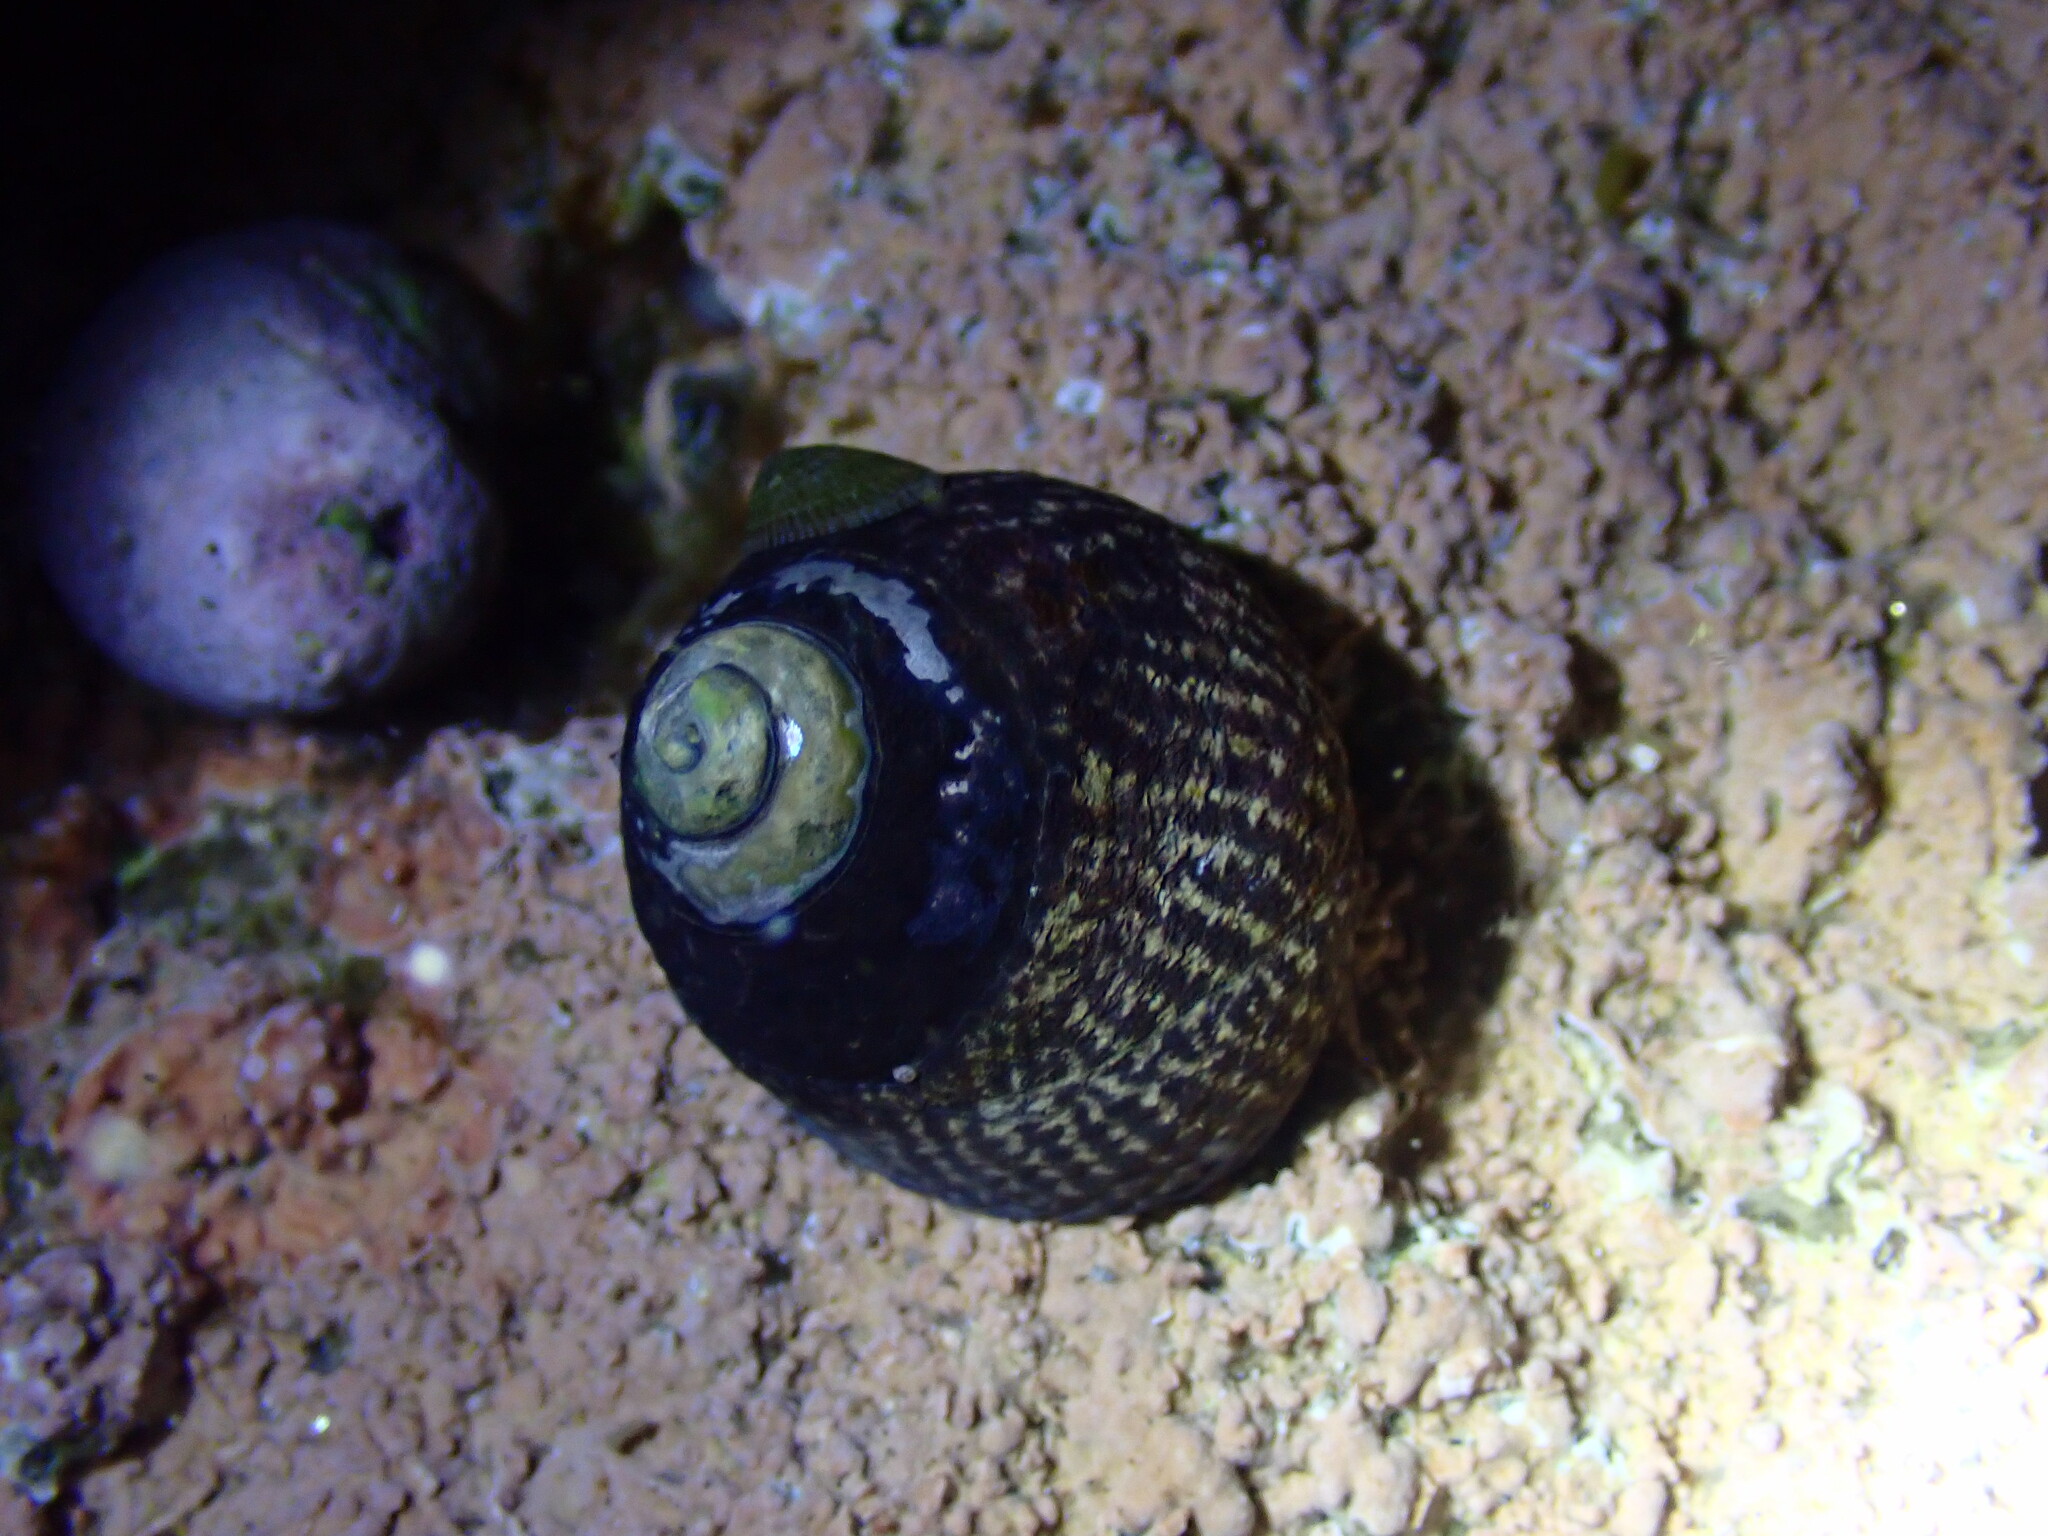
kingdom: Animalia
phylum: Mollusca
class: Gastropoda
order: Trochida
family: Tegulidae
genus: Tegula
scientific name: Tegula gallina
